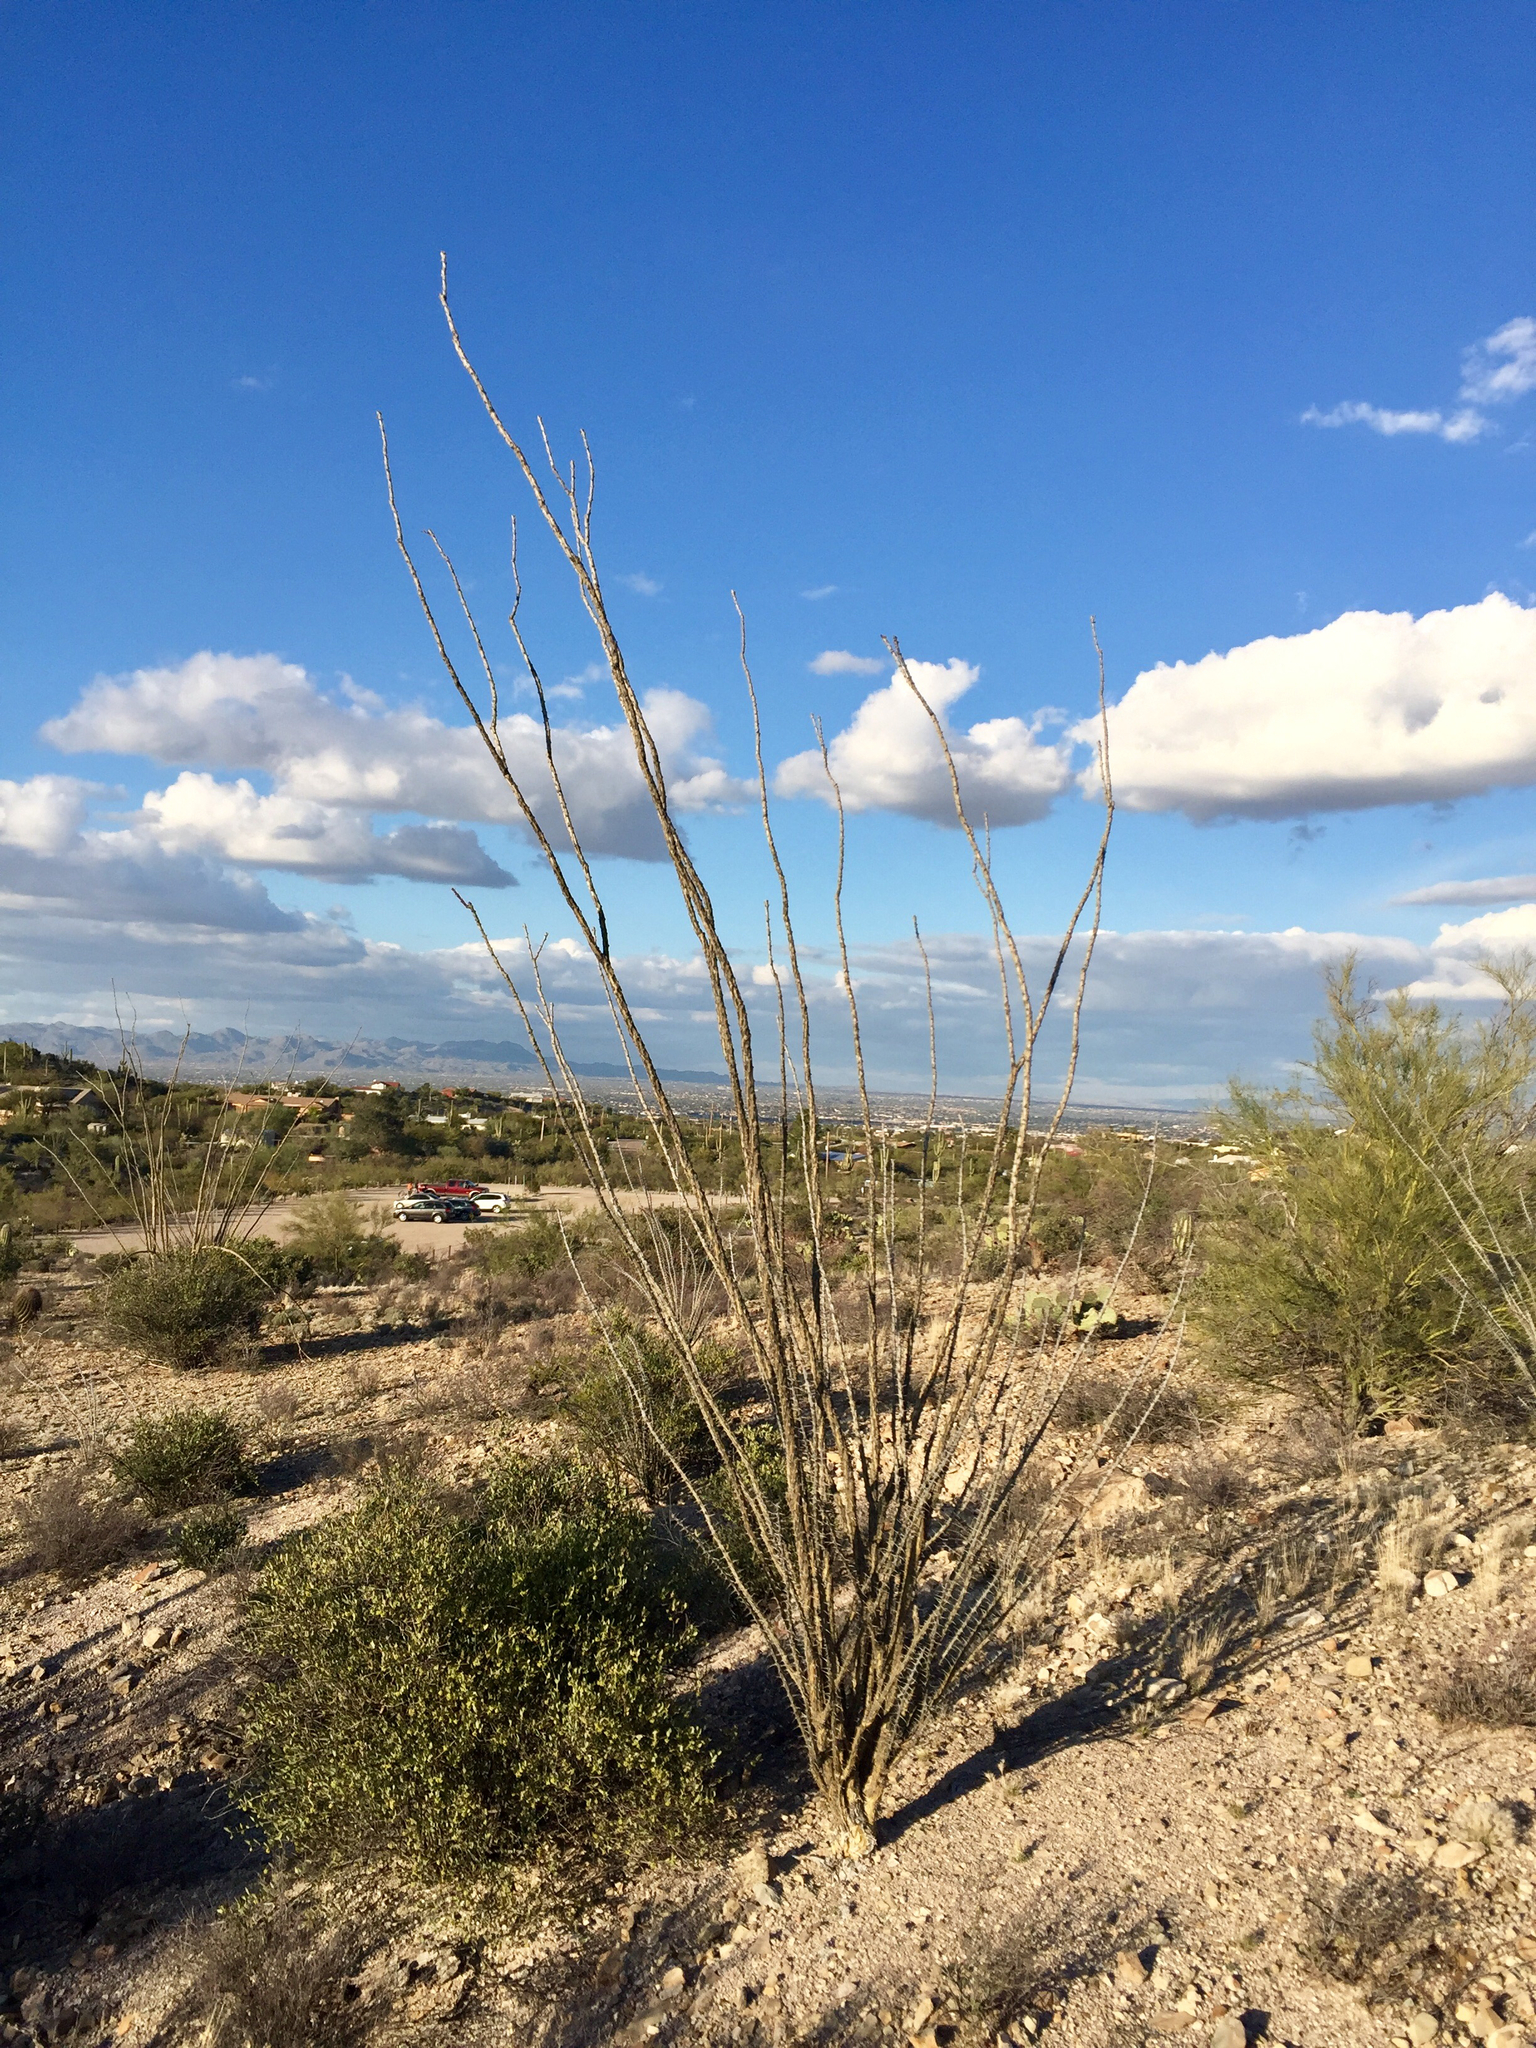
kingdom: Plantae
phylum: Tracheophyta
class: Magnoliopsida
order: Ericales
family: Fouquieriaceae
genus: Fouquieria
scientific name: Fouquieria splendens
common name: Vine-cactus
